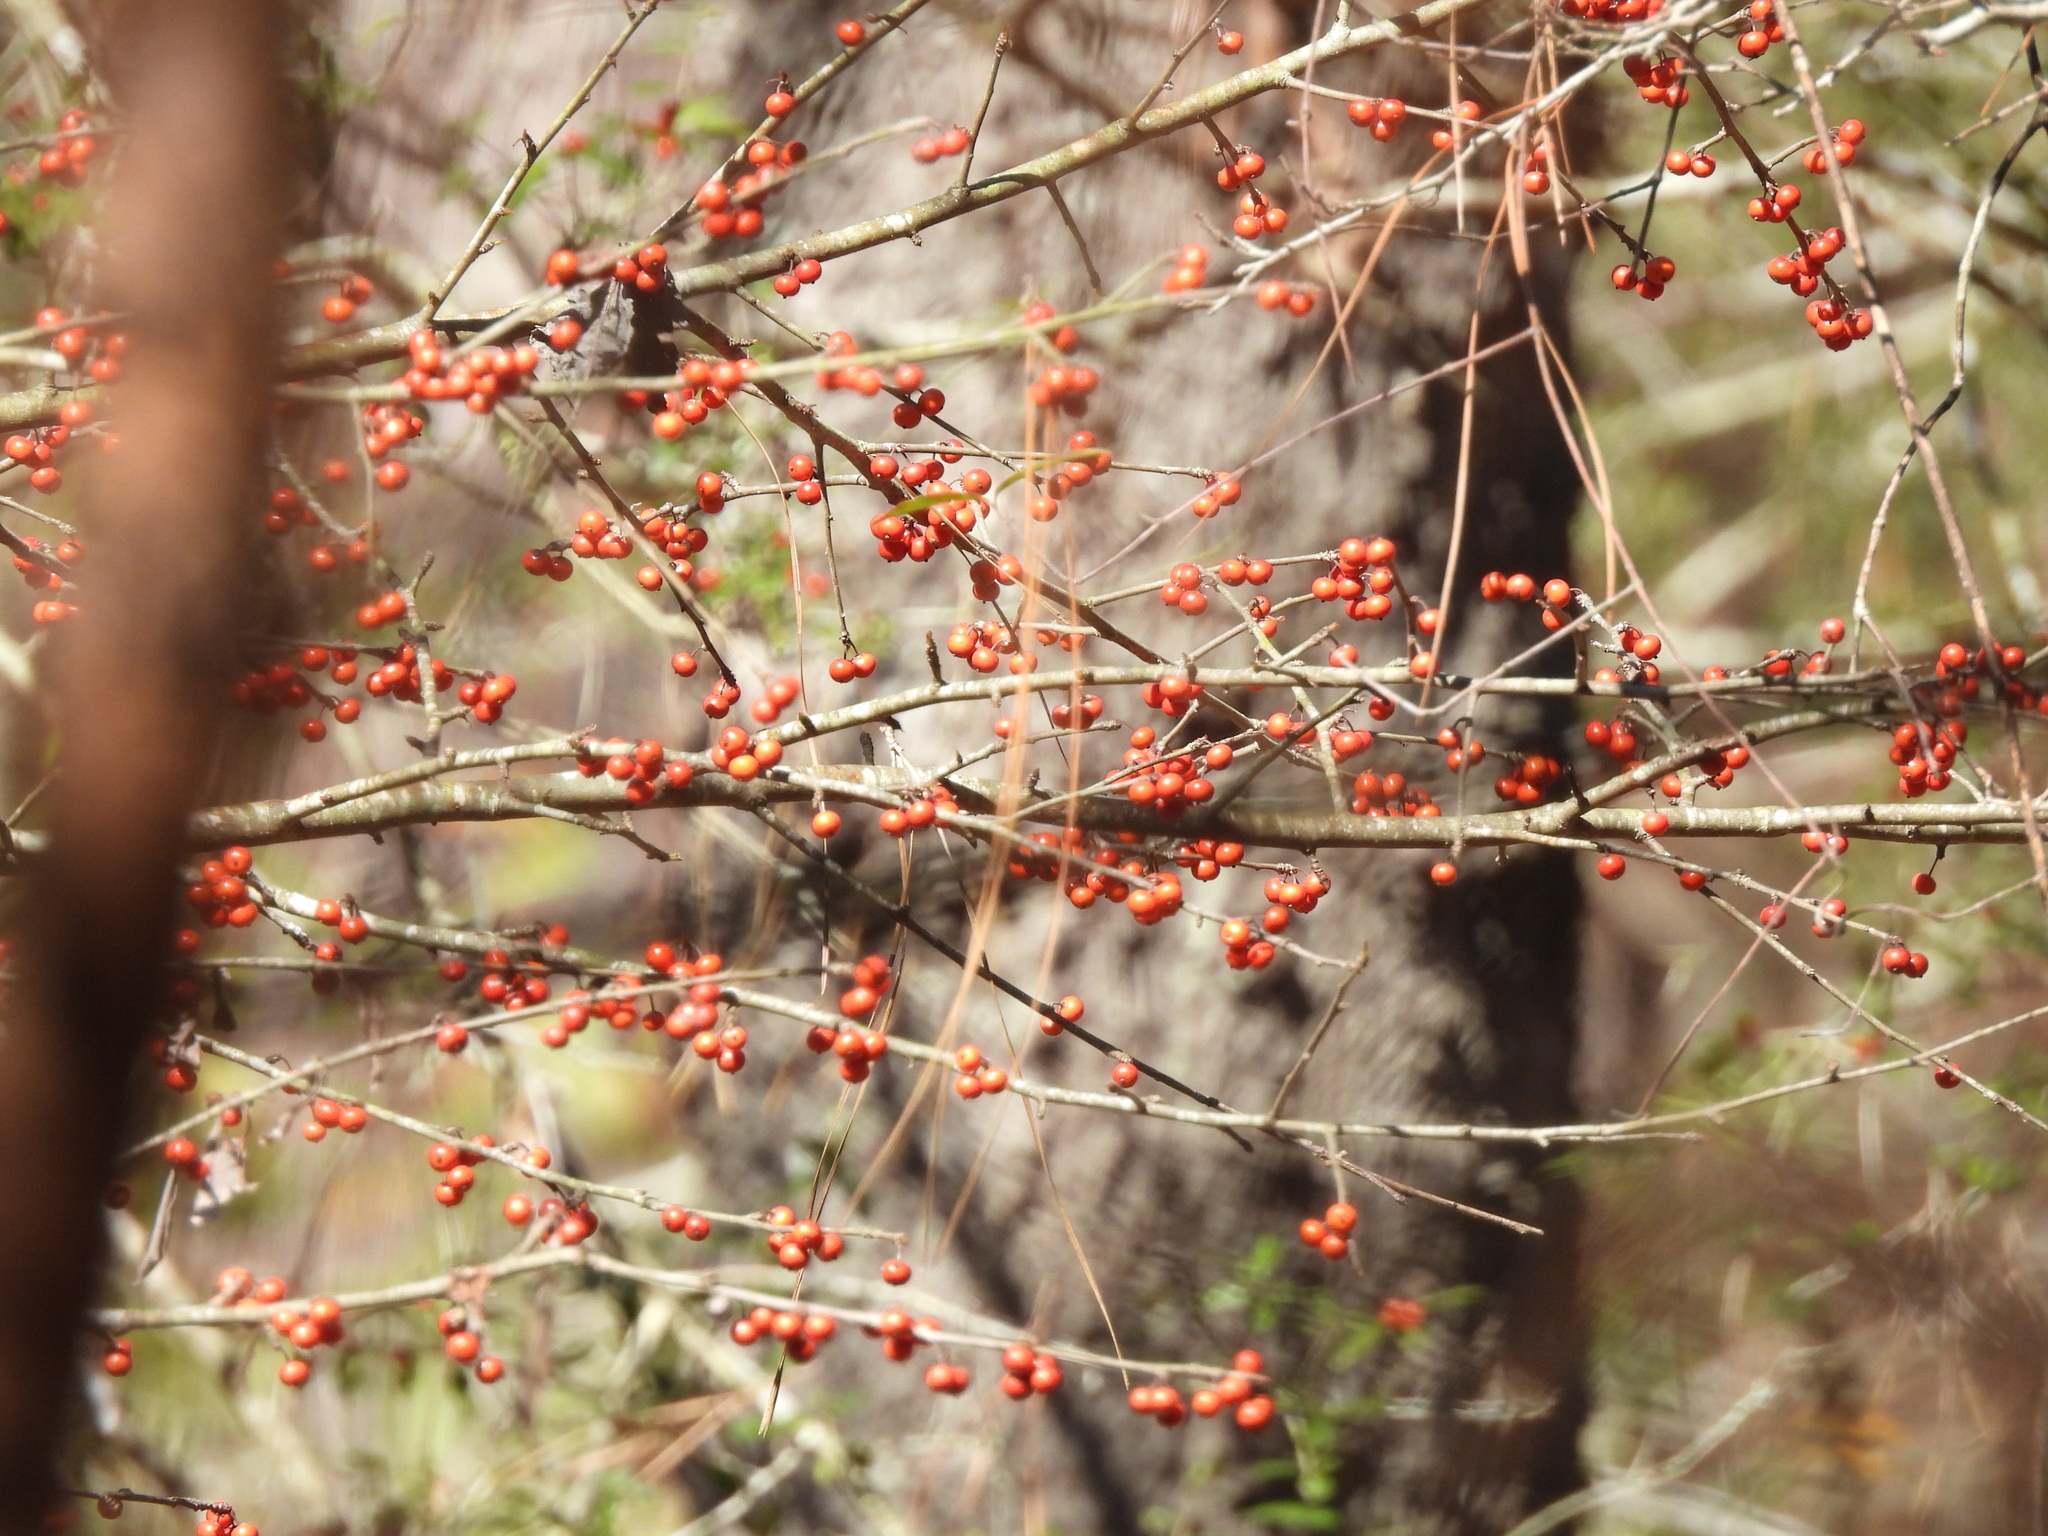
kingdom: Plantae
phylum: Tracheophyta
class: Magnoliopsida
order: Aquifoliales
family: Aquifoliaceae
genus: Ilex
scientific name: Ilex decidua
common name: Possum-haw
